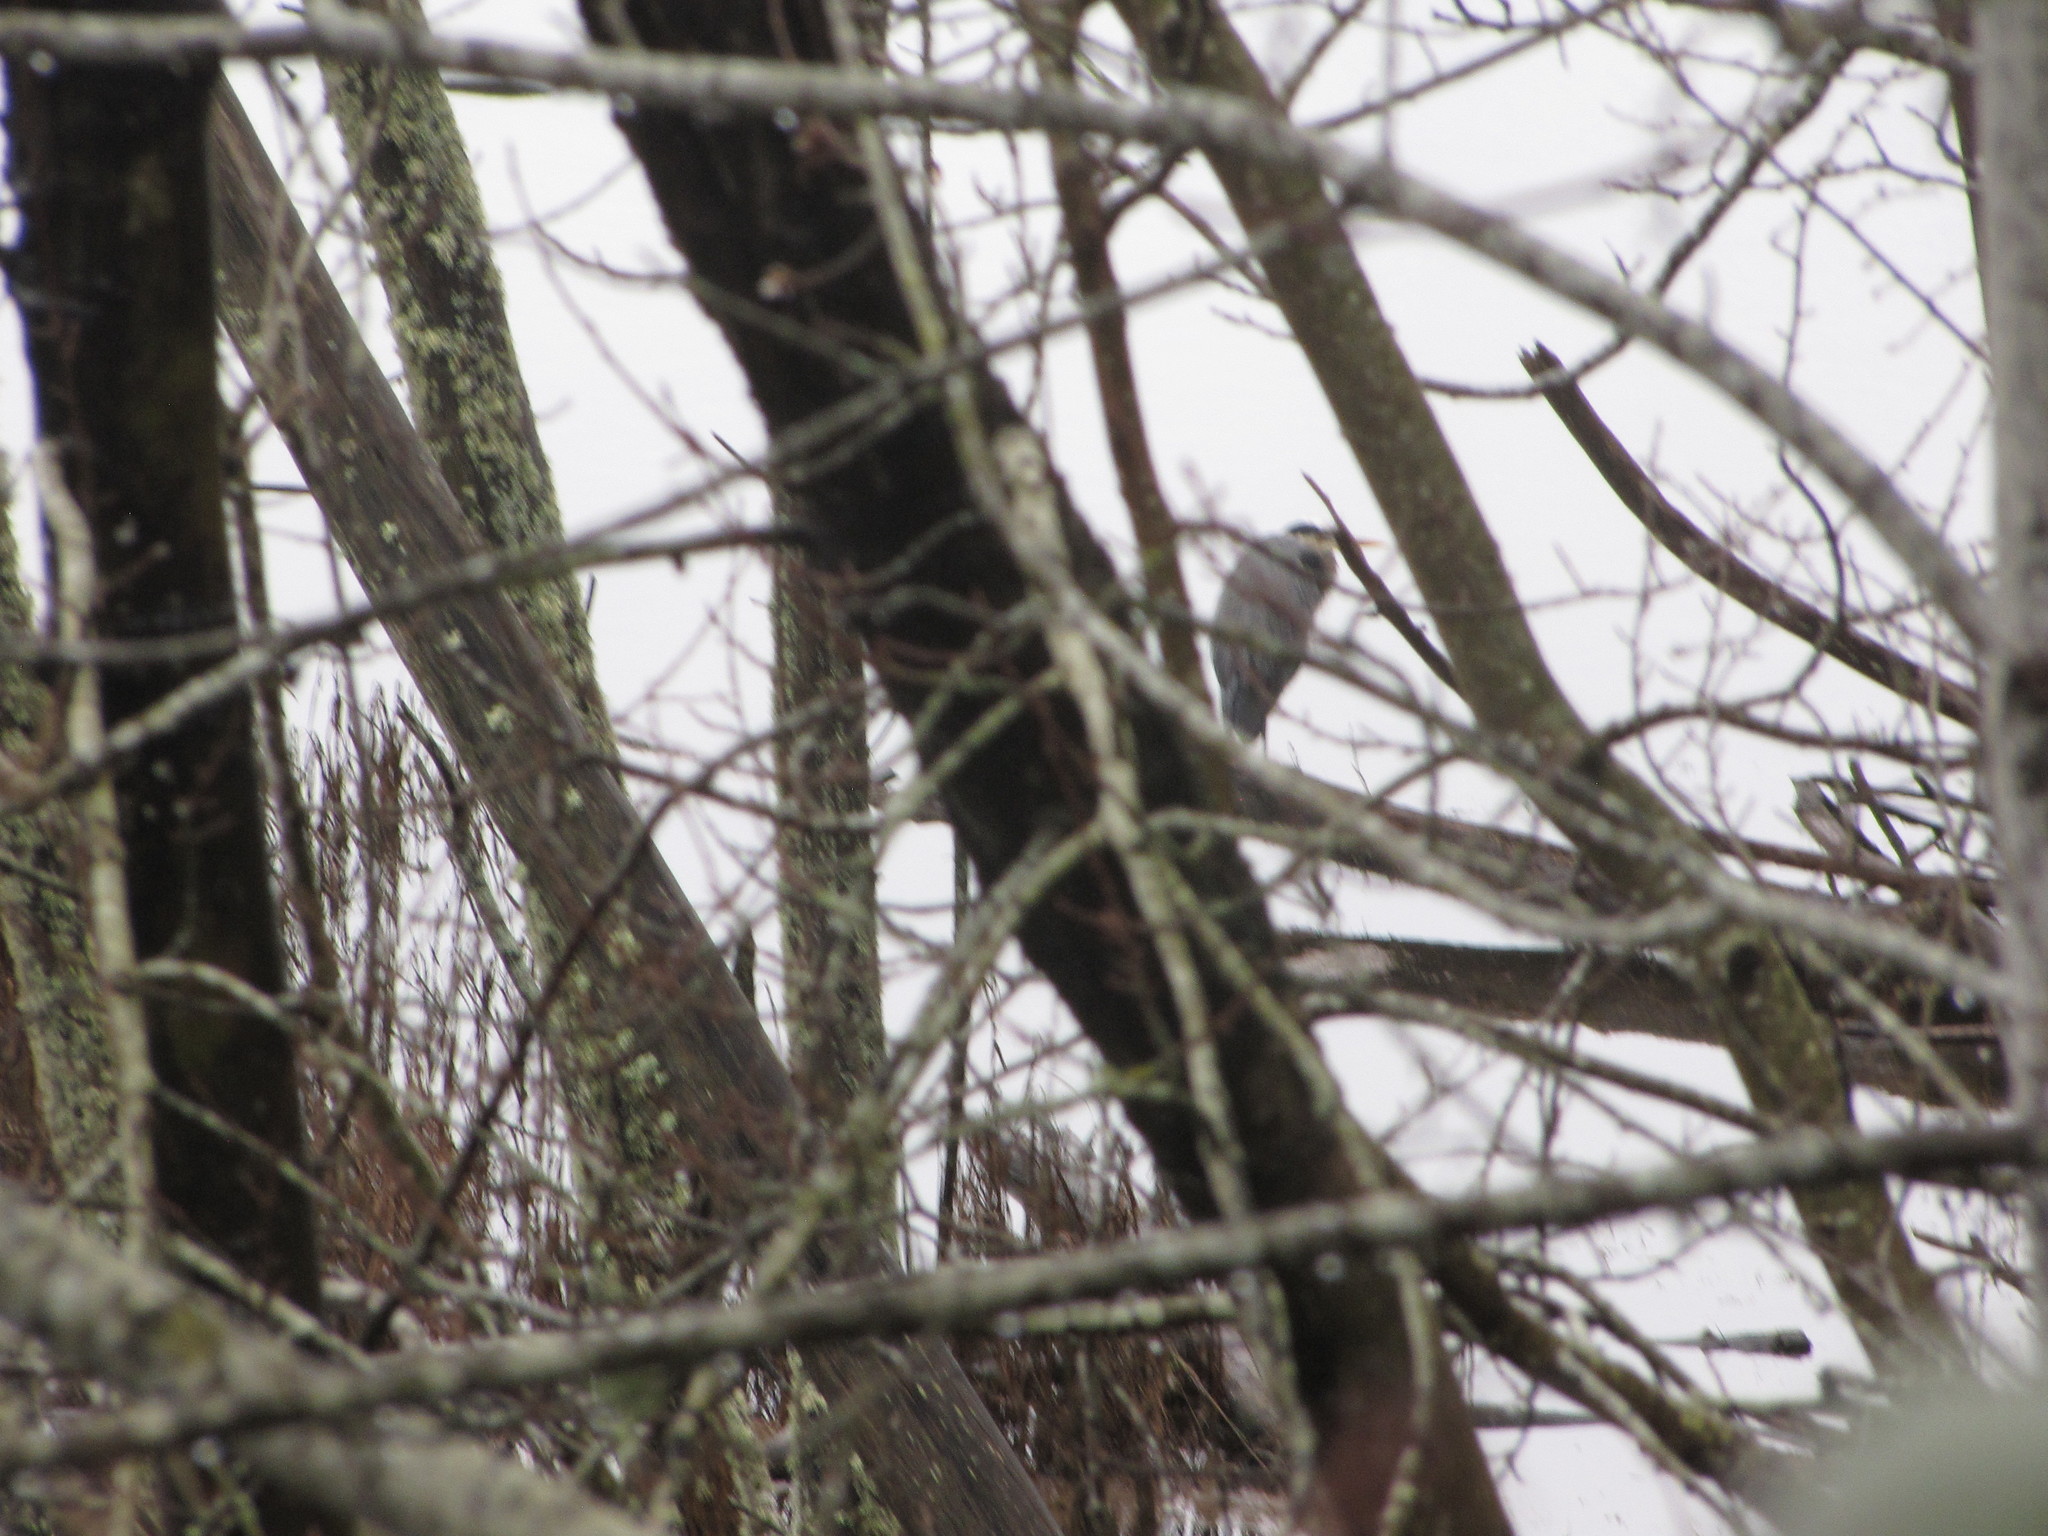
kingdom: Animalia
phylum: Chordata
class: Aves
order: Pelecaniformes
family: Ardeidae
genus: Ardea
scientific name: Ardea herodias
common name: Great blue heron
